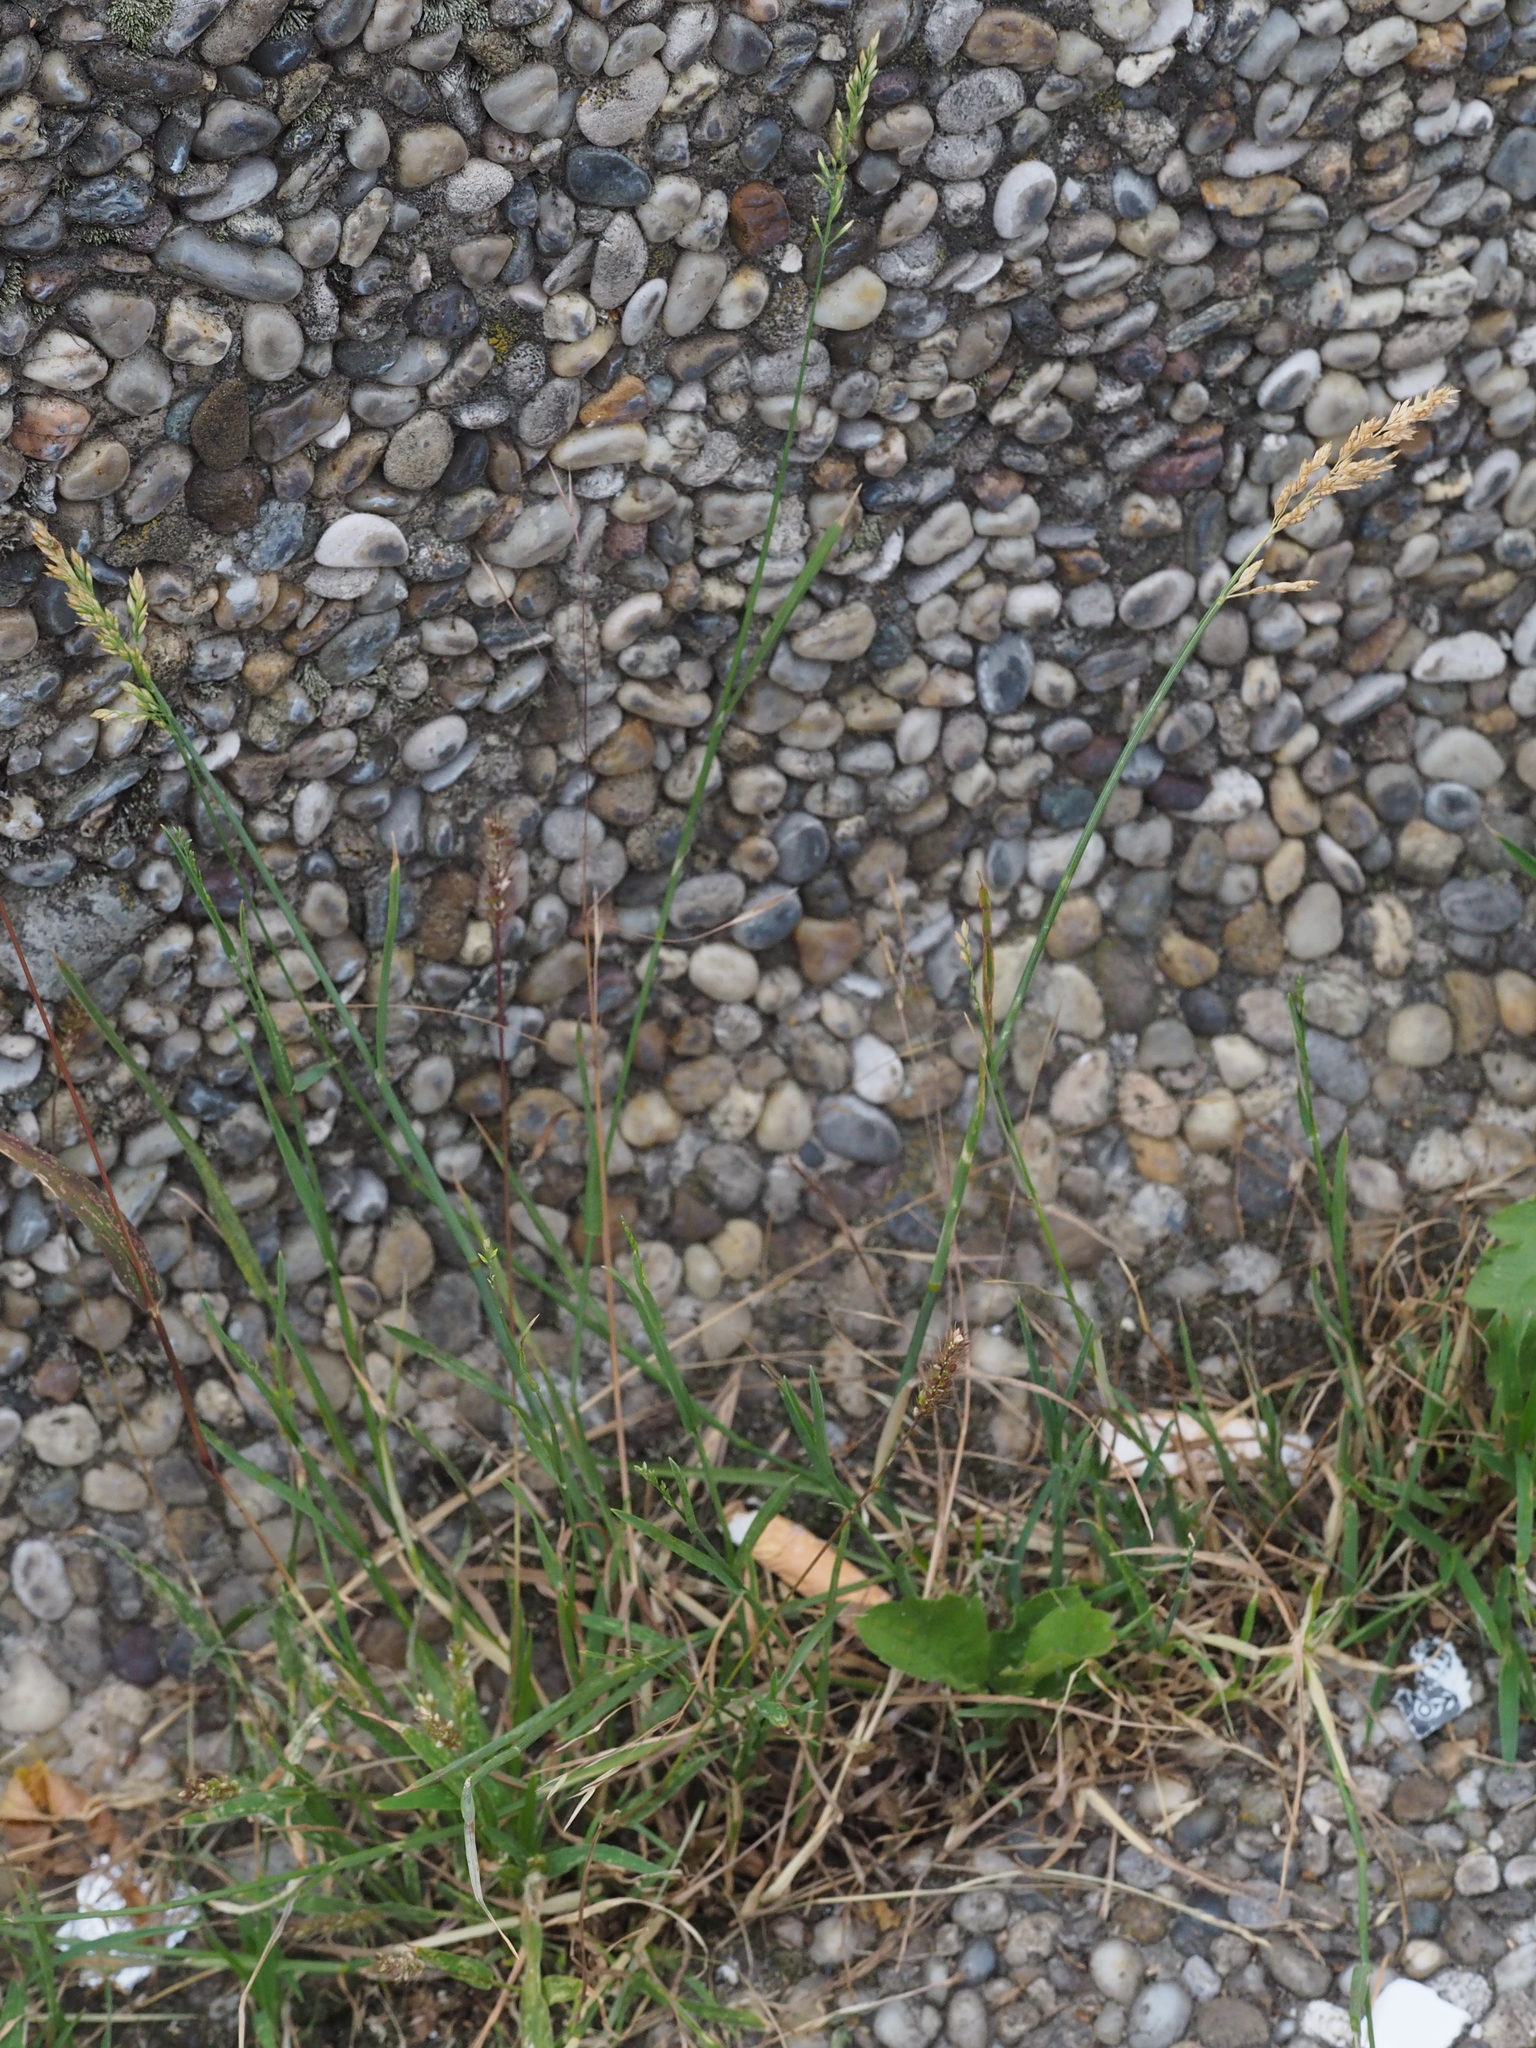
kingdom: Plantae
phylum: Tracheophyta
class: Liliopsida
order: Poales
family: Poaceae
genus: Poa
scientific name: Poa compressa
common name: Canada bluegrass
